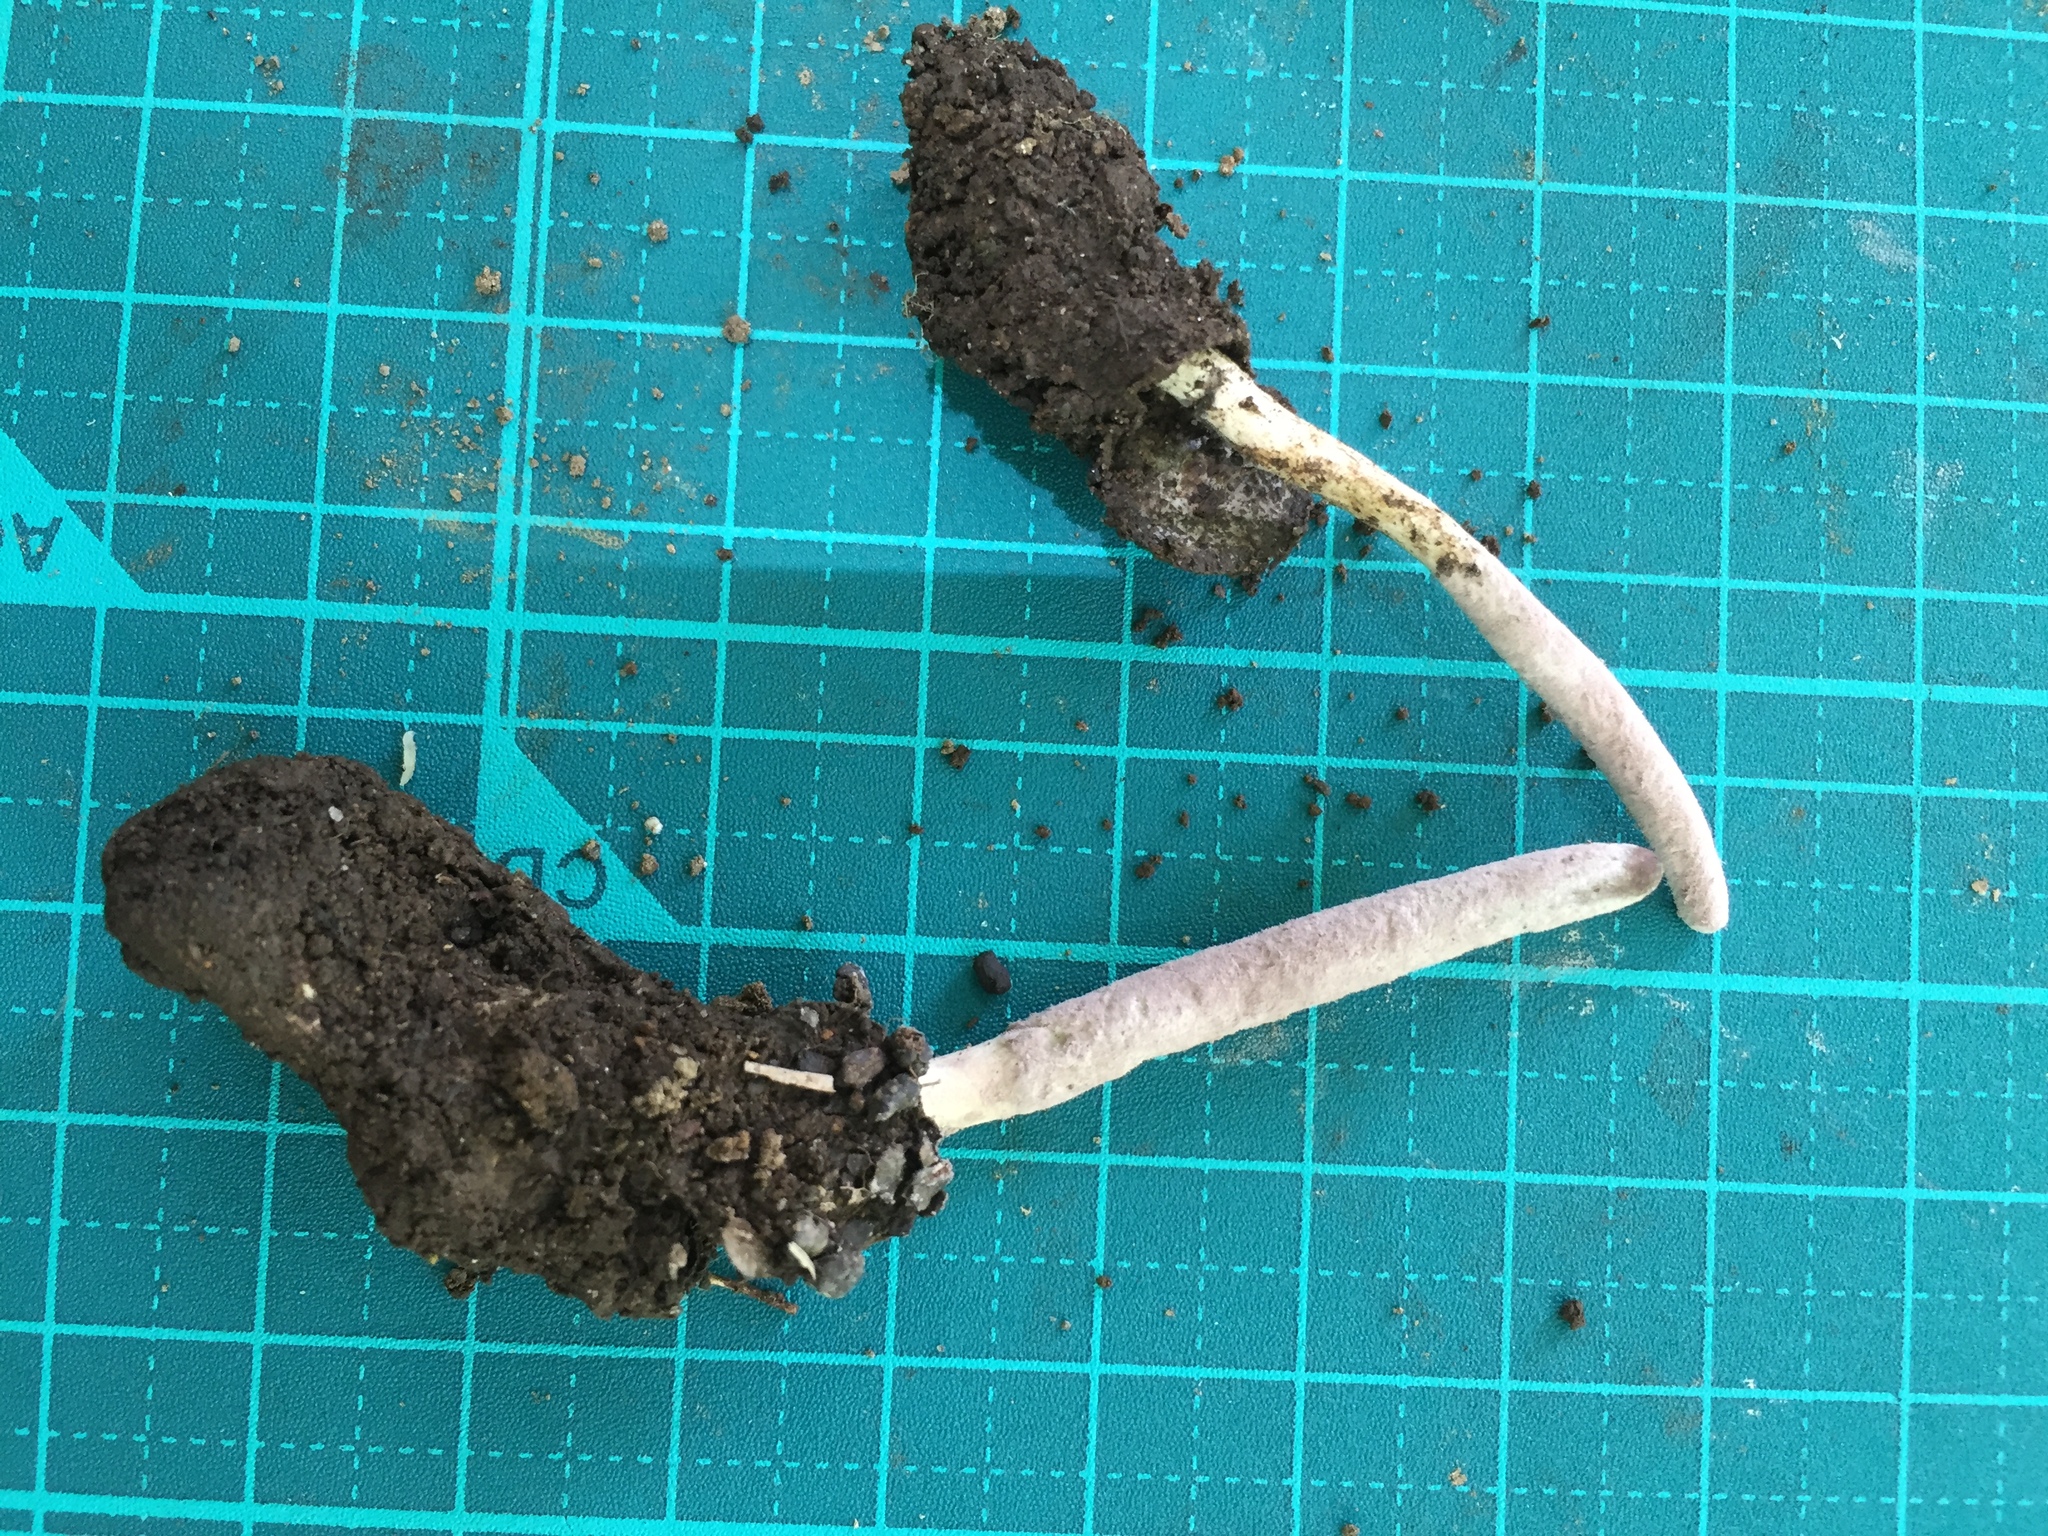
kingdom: Fungi
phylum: Ascomycota
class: Sordariomycetes
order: Hypocreales
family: Ophiocordycipitaceae
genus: Purpureocillium
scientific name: Purpureocillium atypicola
